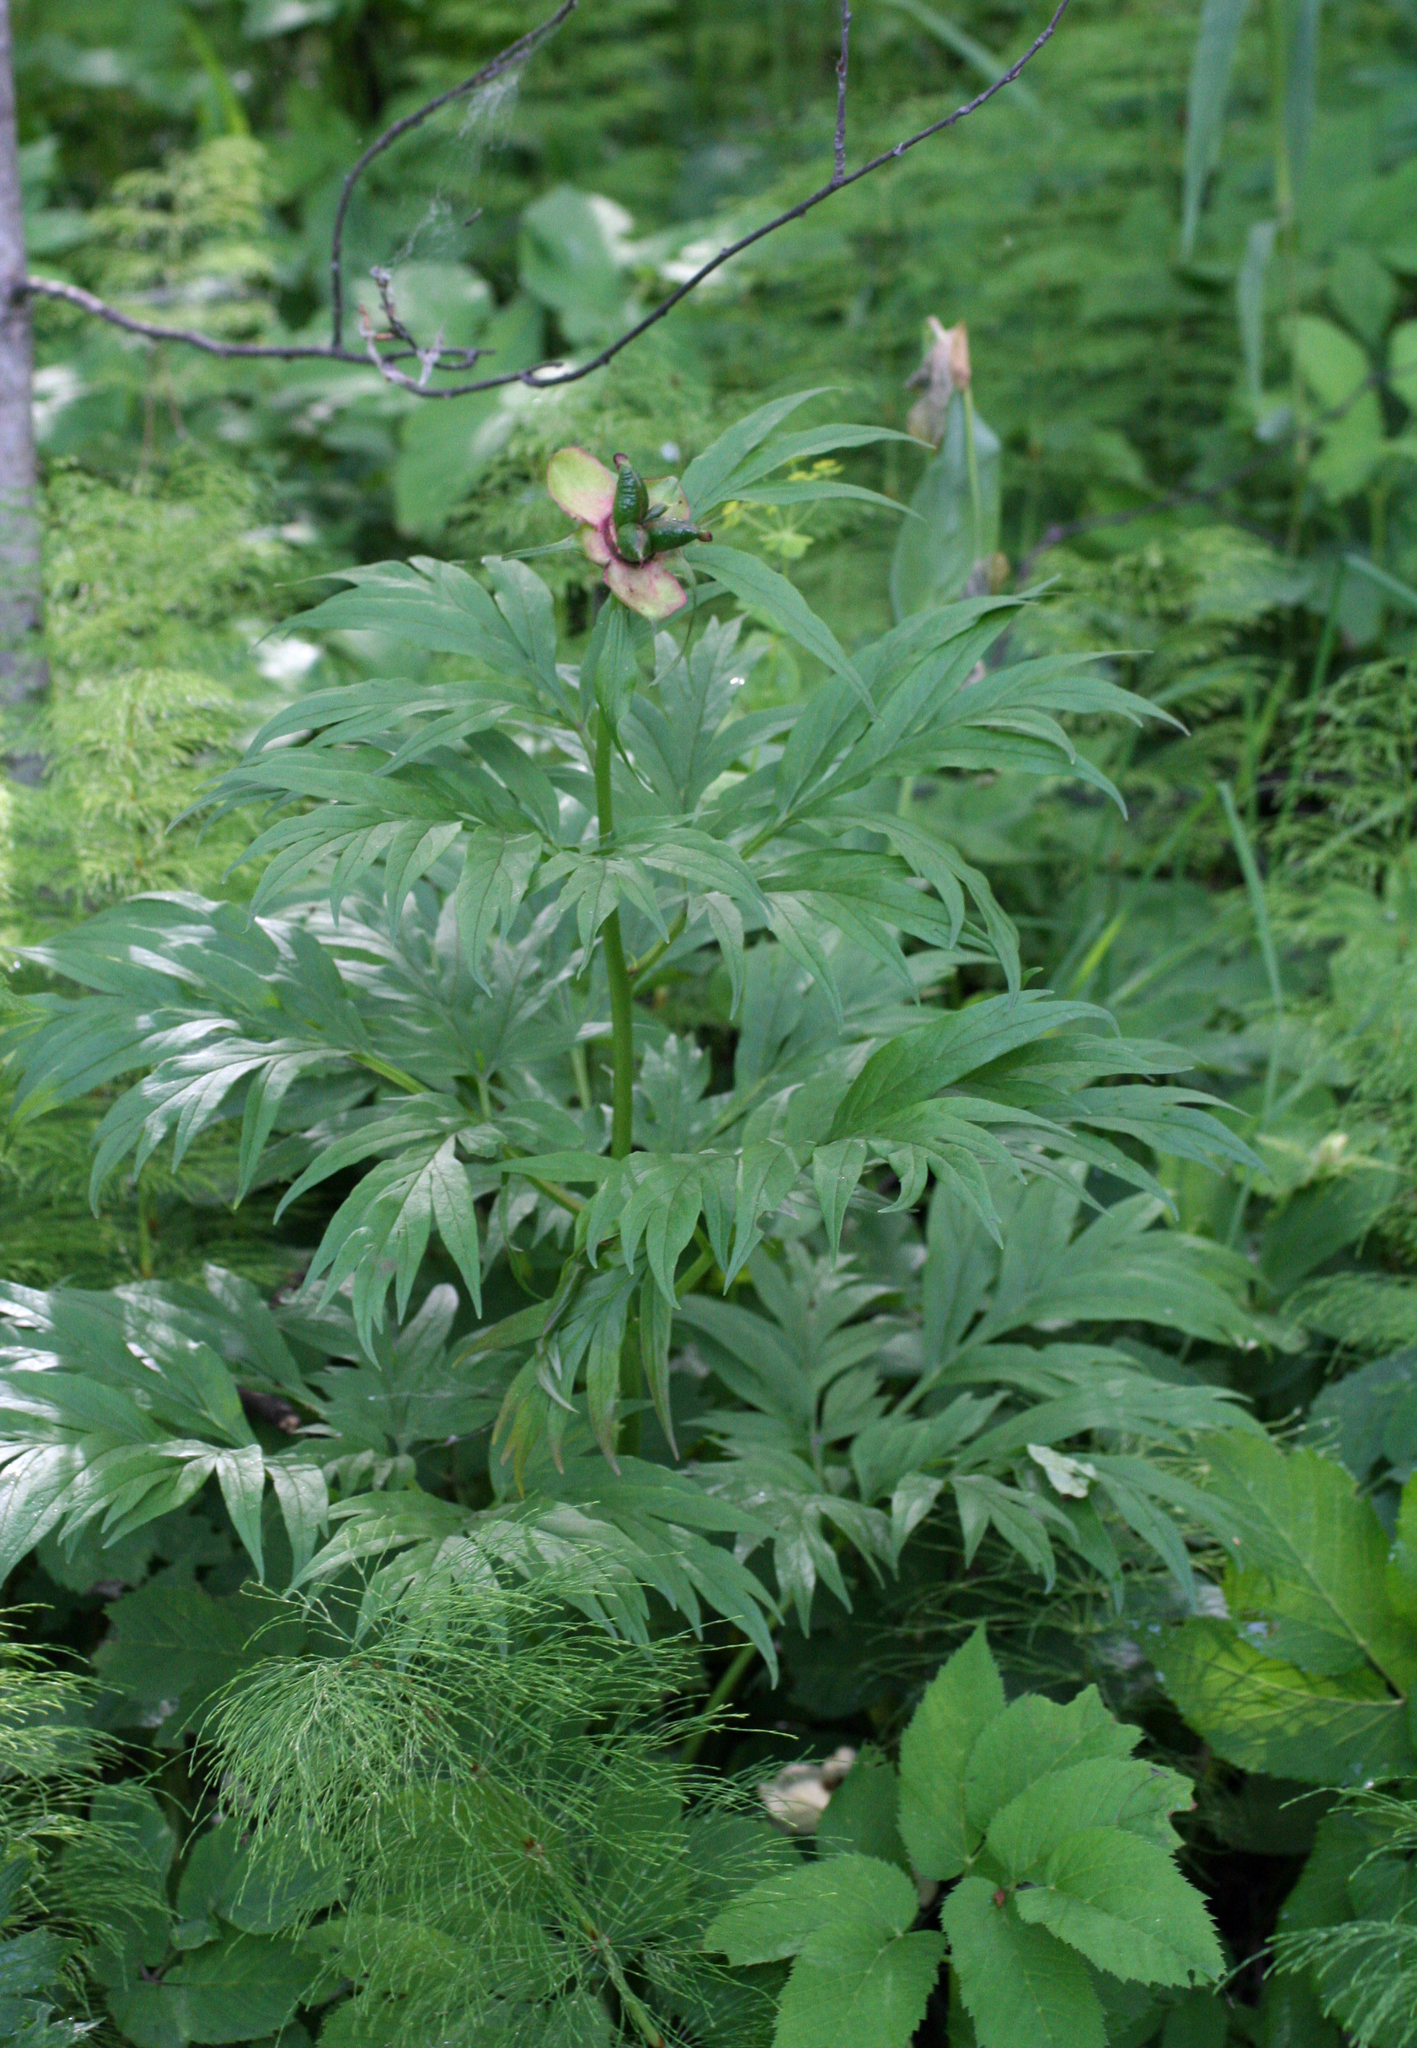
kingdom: Plantae
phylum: Tracheophyta
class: Magnoliopsida
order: Saxifragales
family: Paeoniaceae
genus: Paeonia
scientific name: Paeonia anomala
